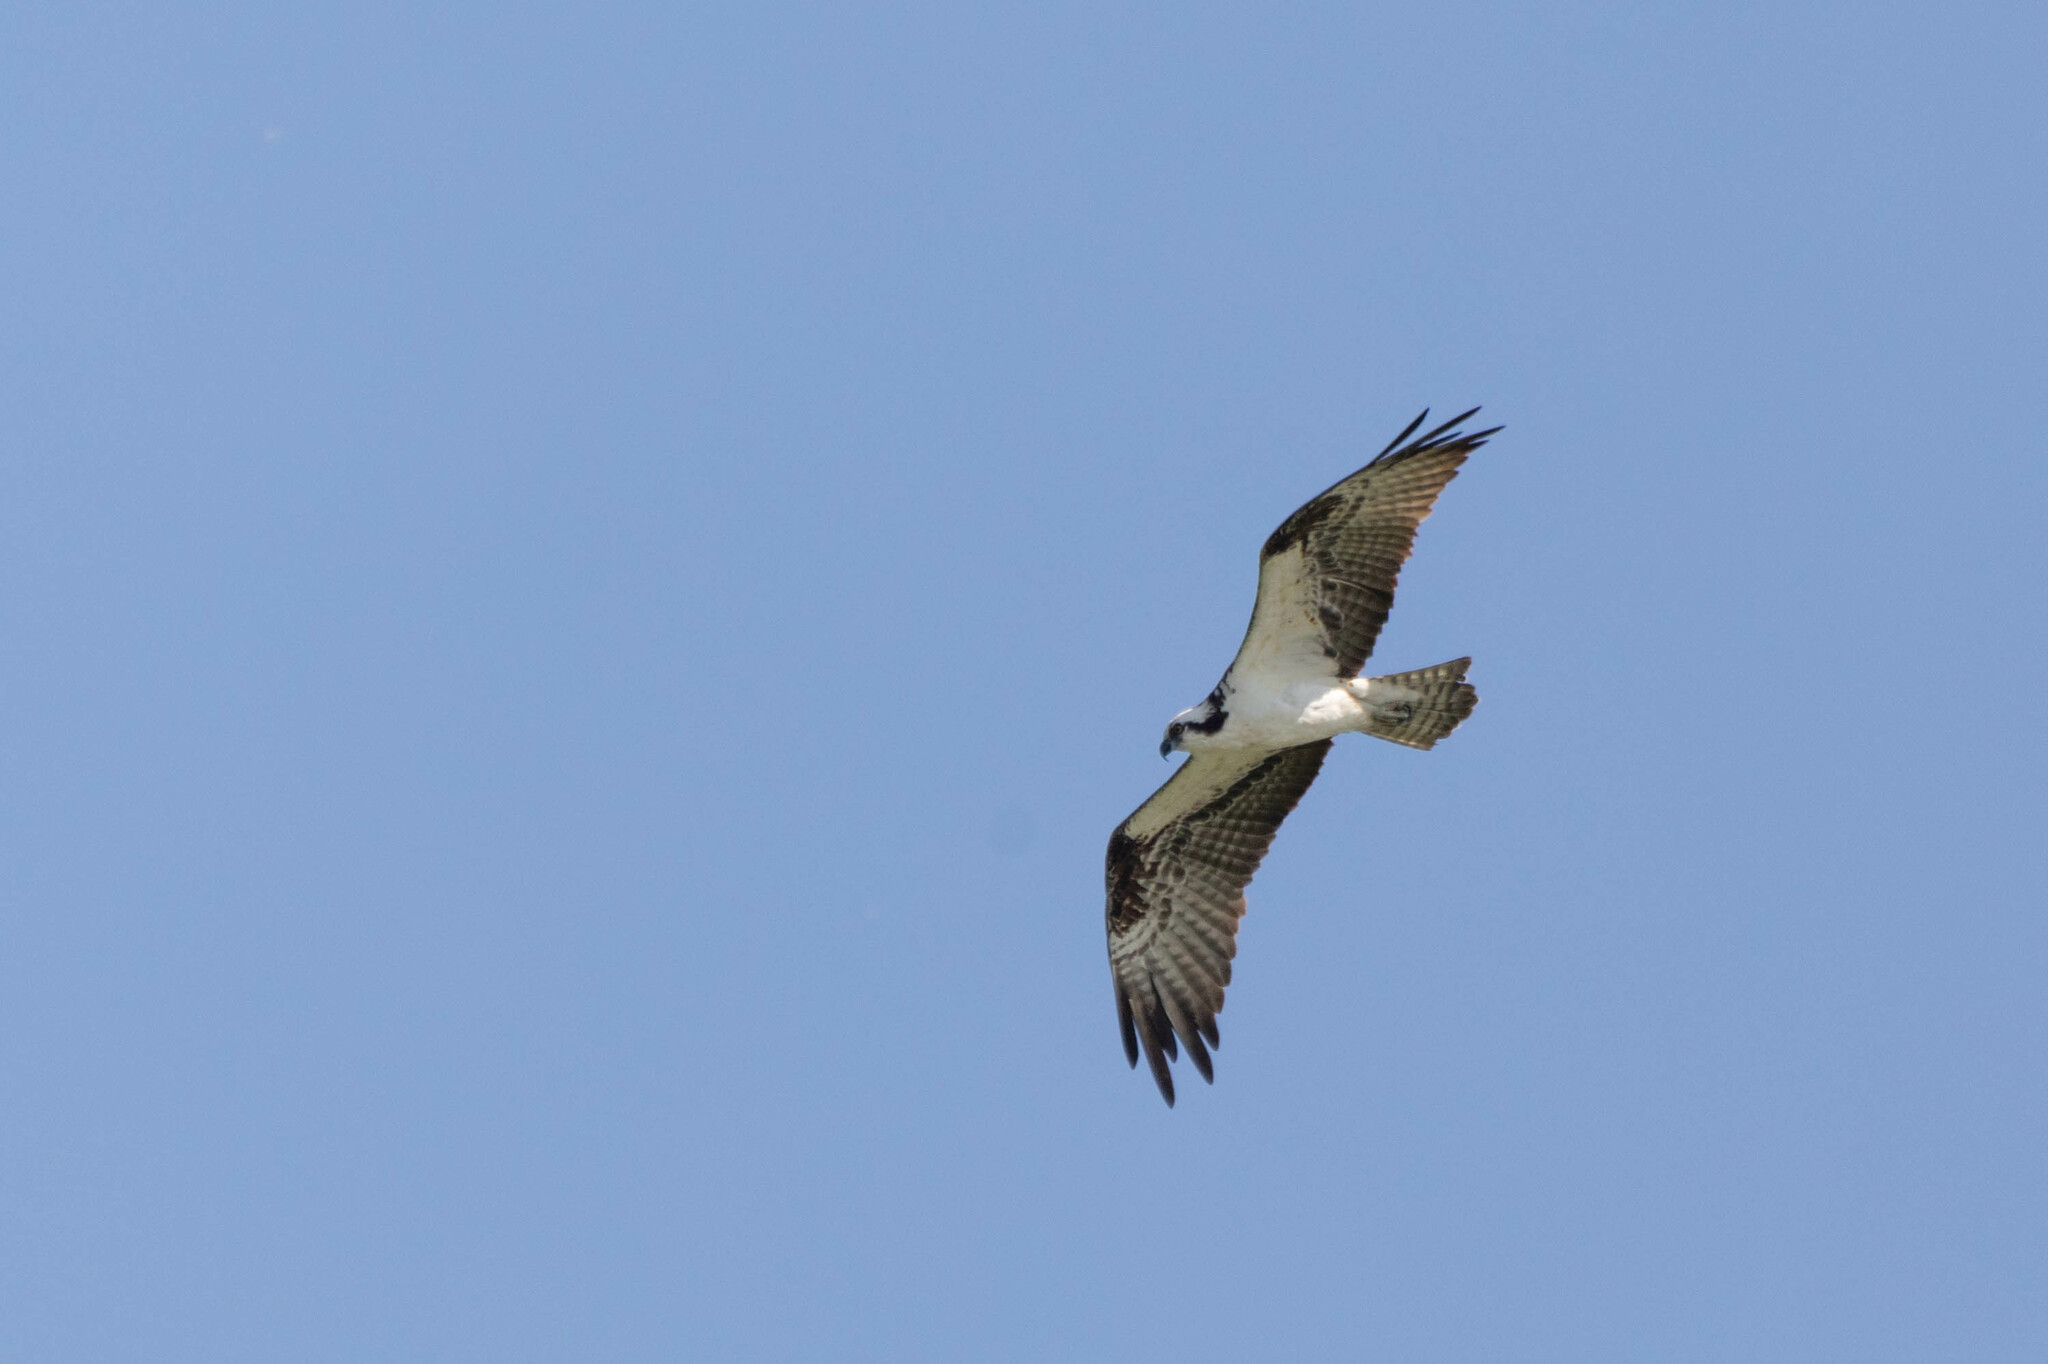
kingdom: Animalia
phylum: Chordata
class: Aves
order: Accipitriformes
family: Pandionidae
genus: Pandion
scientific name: Pandion haliaetus
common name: Osprey
